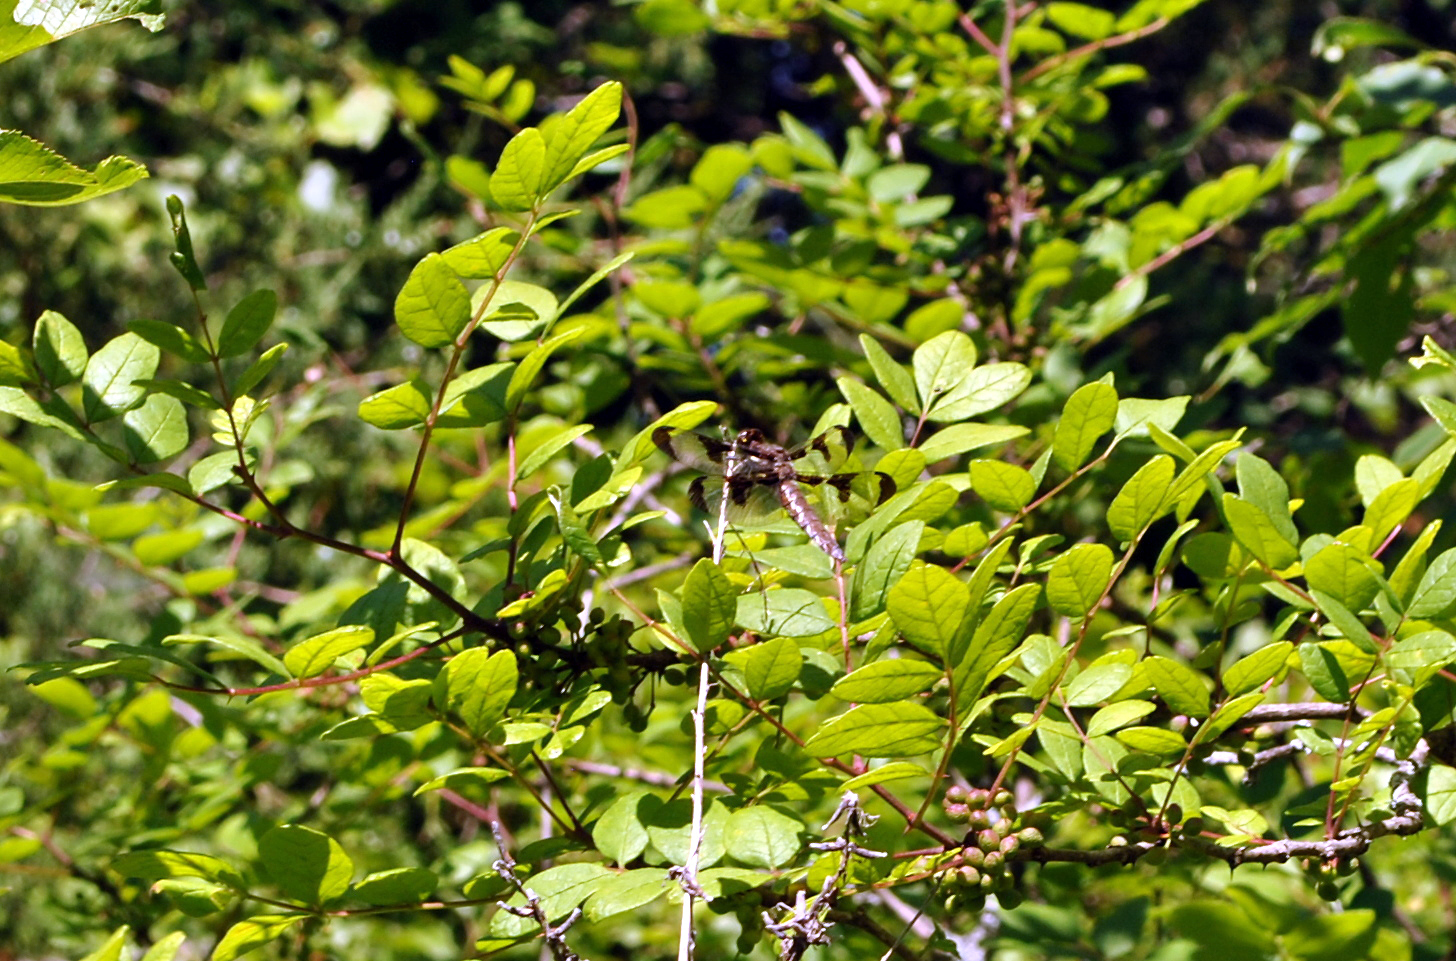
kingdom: Animalia
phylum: Arthropoda
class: Insecta
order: Odonata
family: Libellulidae
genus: Libellula
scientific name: Libellula pulchella
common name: Twelve-spotted skimmer
